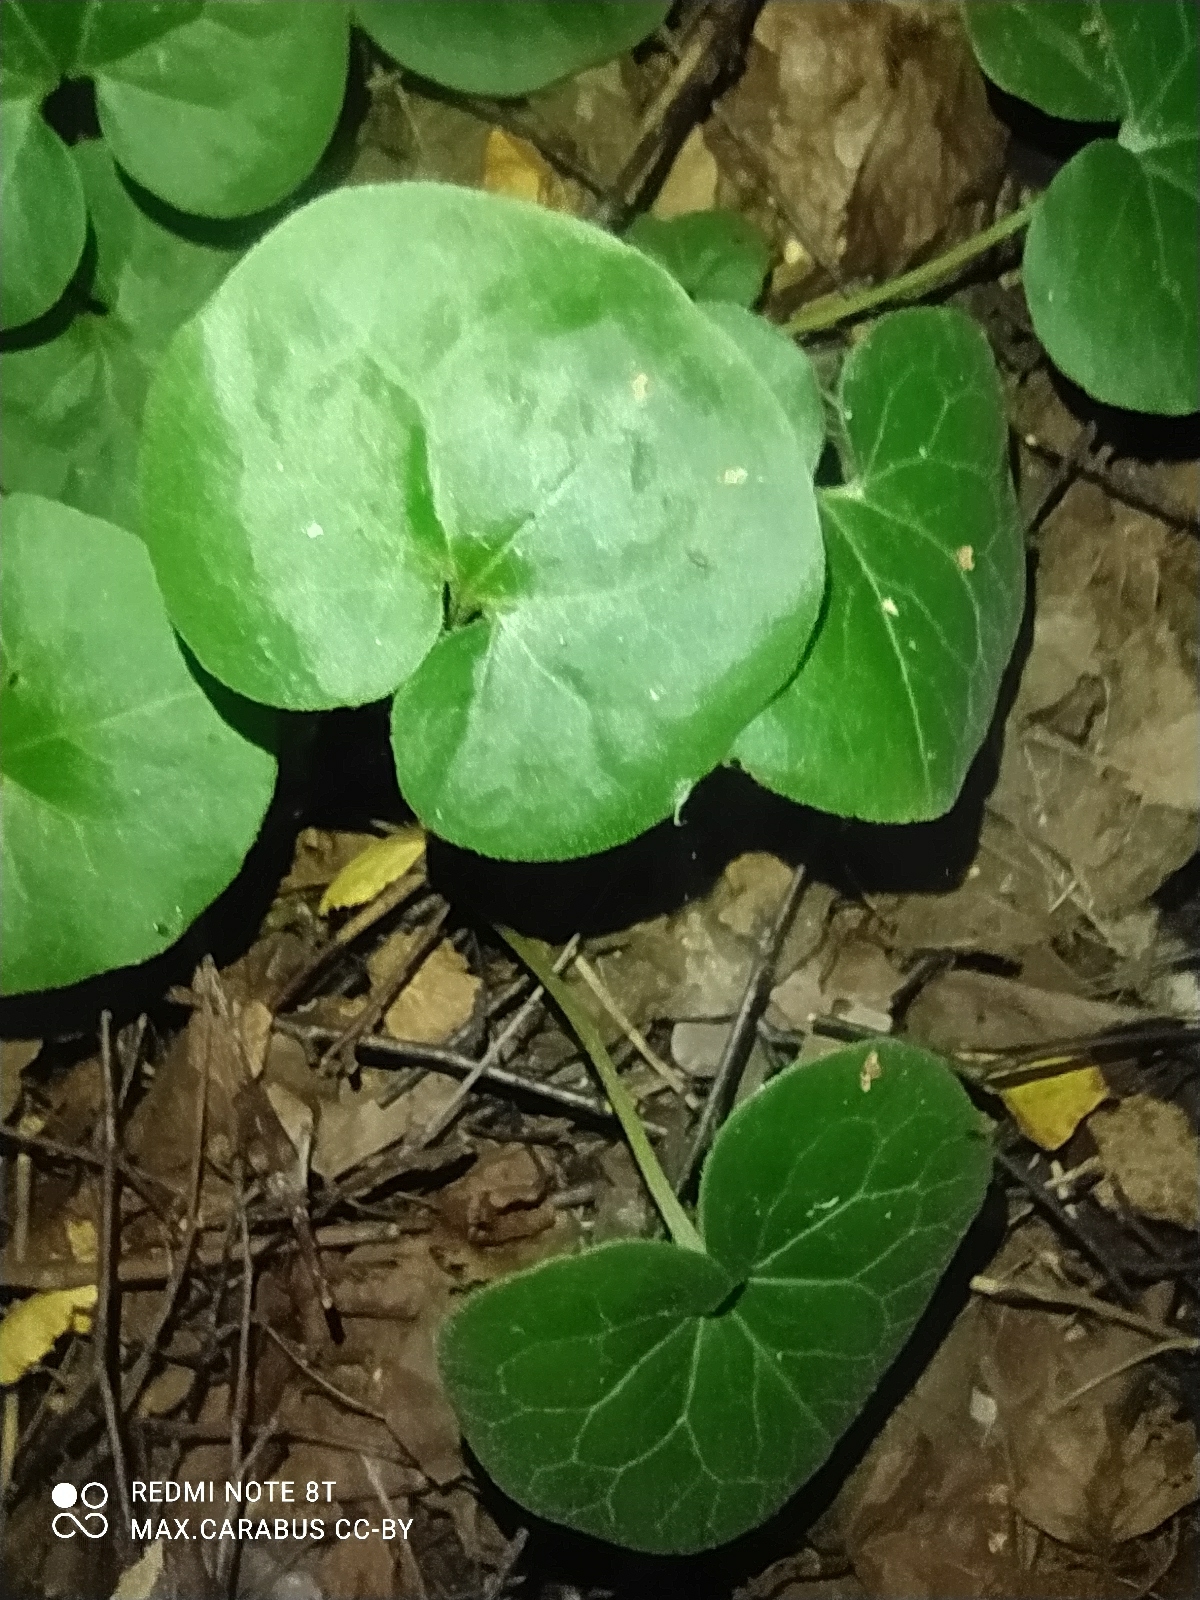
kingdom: Plantae
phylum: Tracheophyta
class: Magnoliopsida
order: Piperales
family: Aristolochiaceae
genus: Asarum
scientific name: Asarum europaeum
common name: Asarabacca
